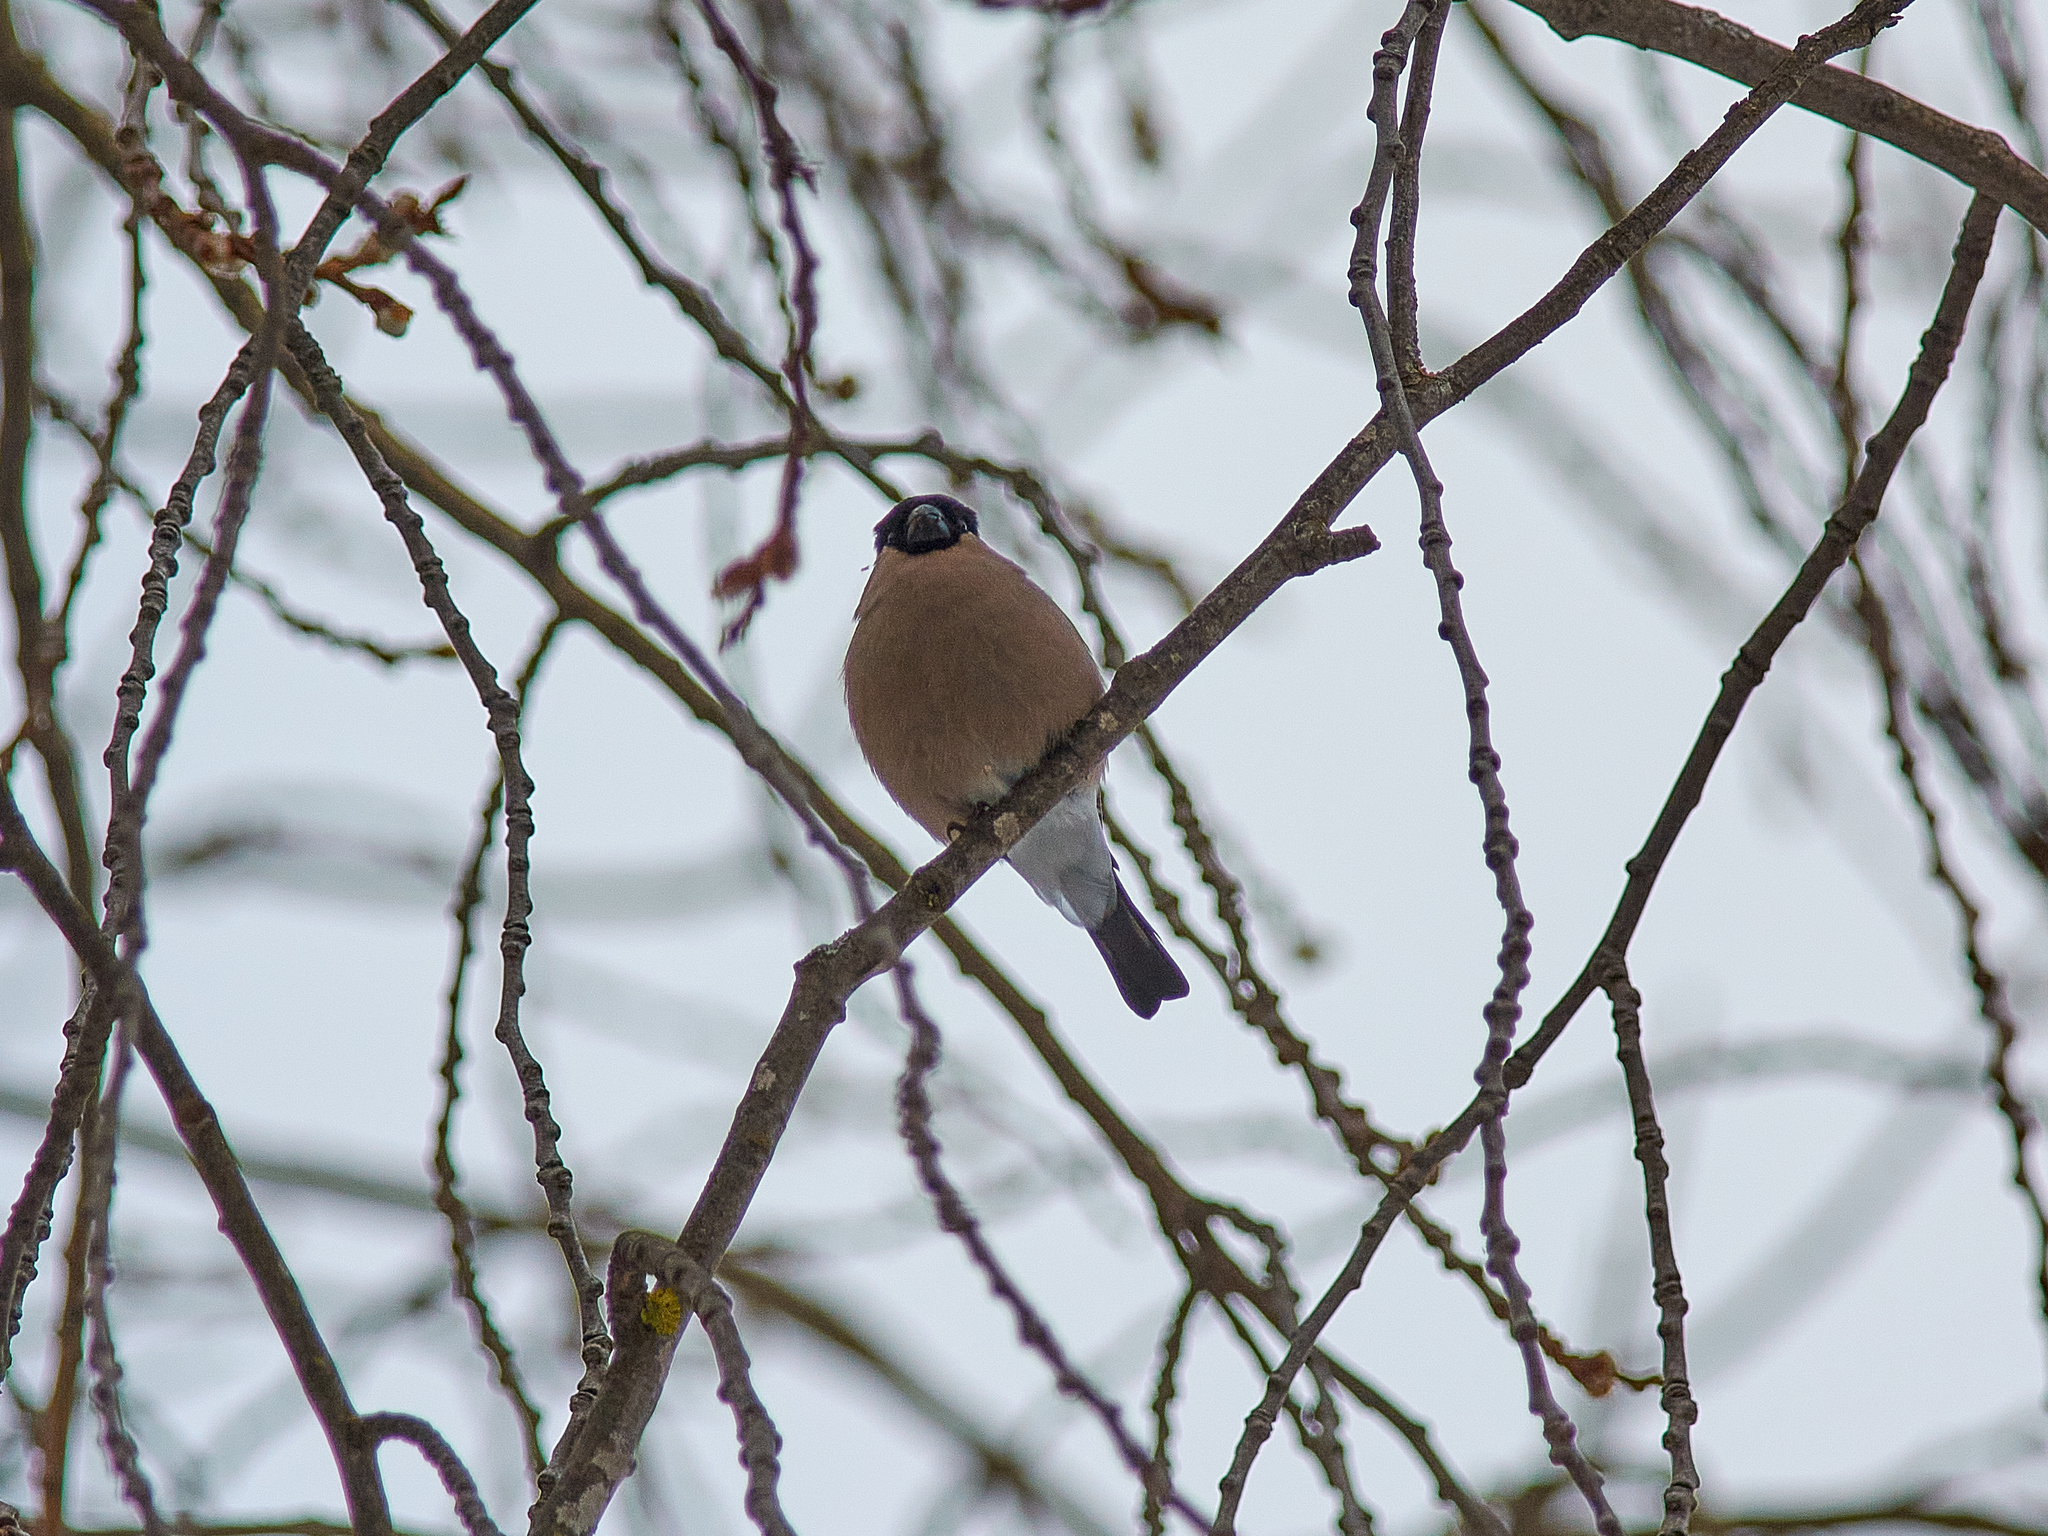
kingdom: Animalia
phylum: Chordata
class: Aves
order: Passeriformes
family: Fringillidae
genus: Pyrrhula
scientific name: Pyrrhula pyrrhula
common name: Eurasian bullfinch
